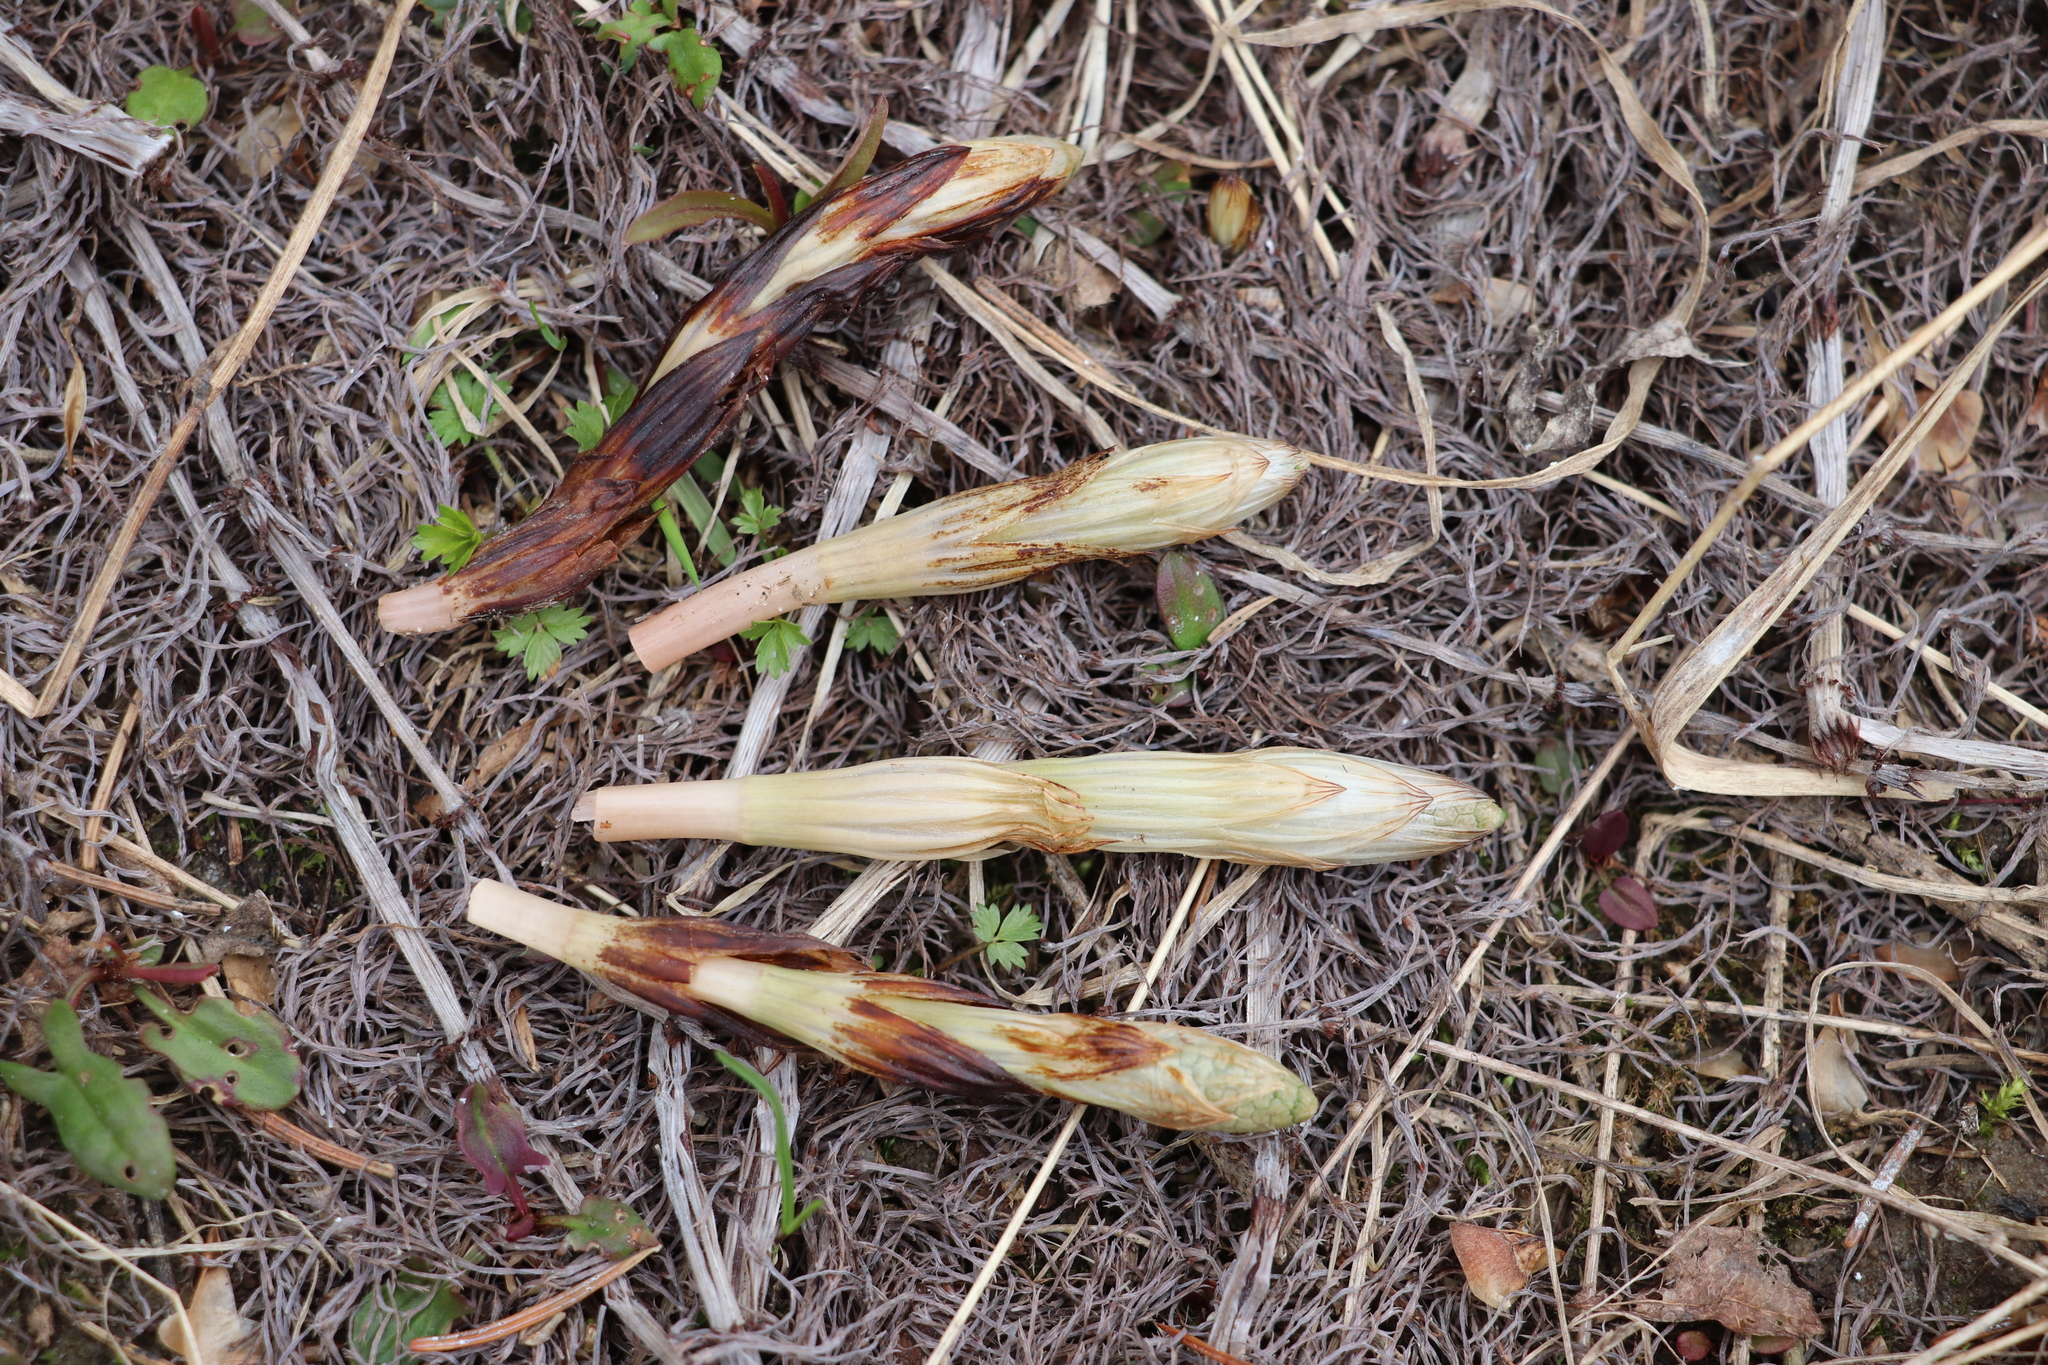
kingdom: Plantae
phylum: Tracheophyta
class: Polypodiopsida
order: Equisetales
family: Equisetaceae
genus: Equisetum
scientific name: Equisetum sylvaticum
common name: Wood horsetail
